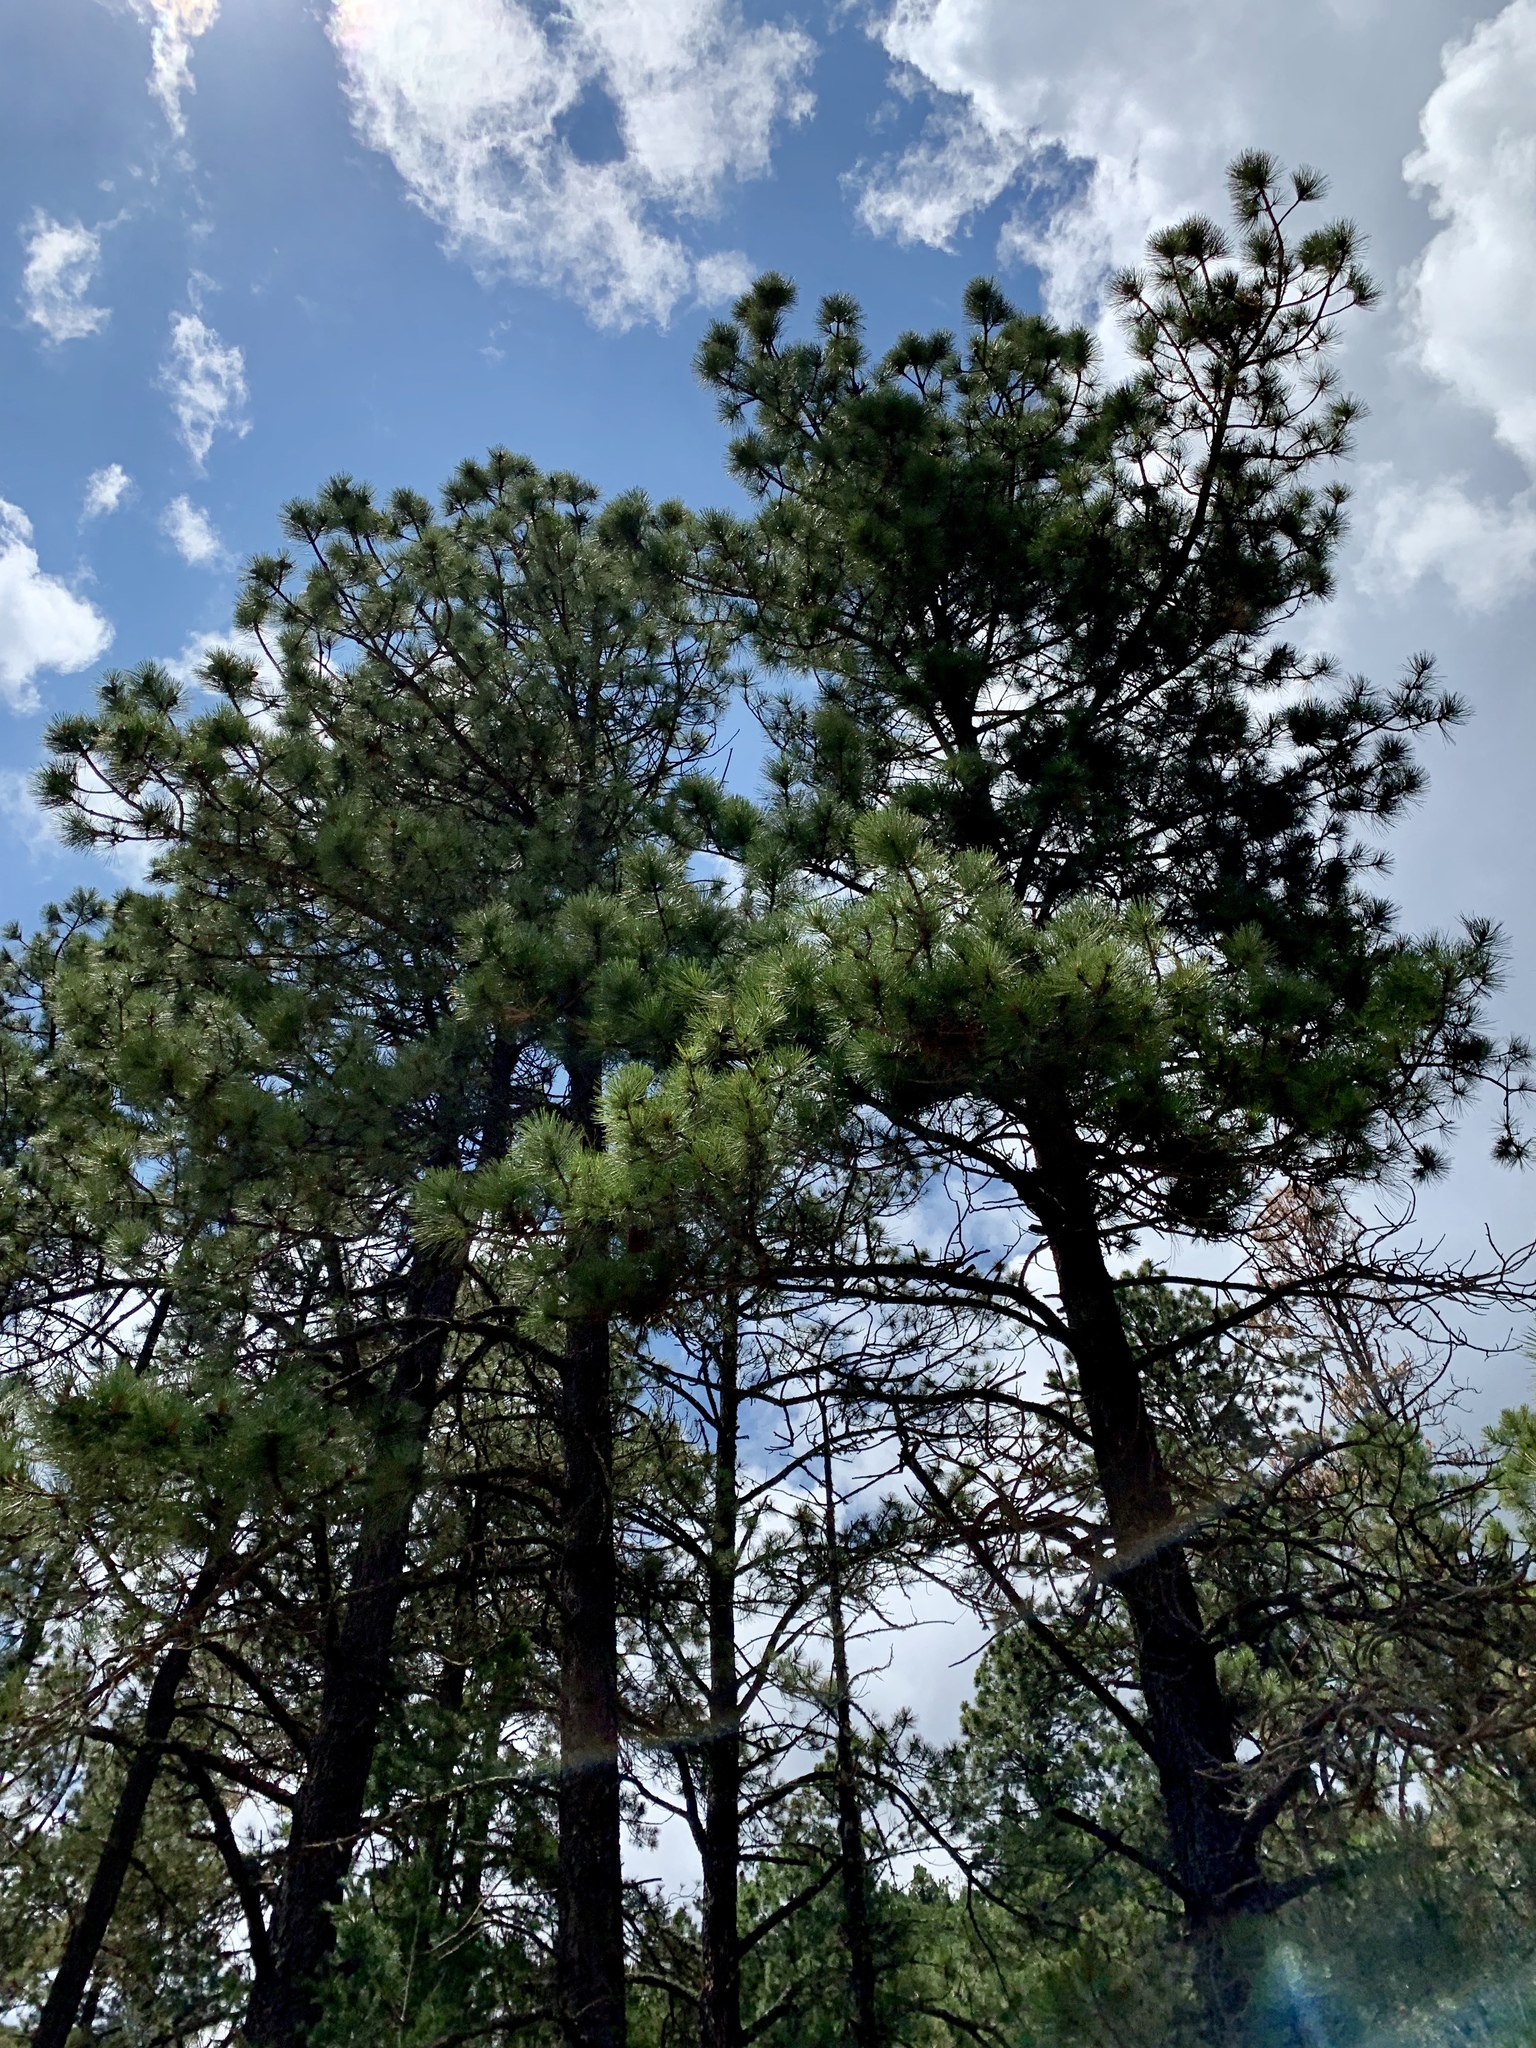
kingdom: Plantae
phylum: Tracheophyta
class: Pinopsida
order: Pinales
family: Pinaceae
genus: Pinus
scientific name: Pinus ponderosa
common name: Western yellow-pine
